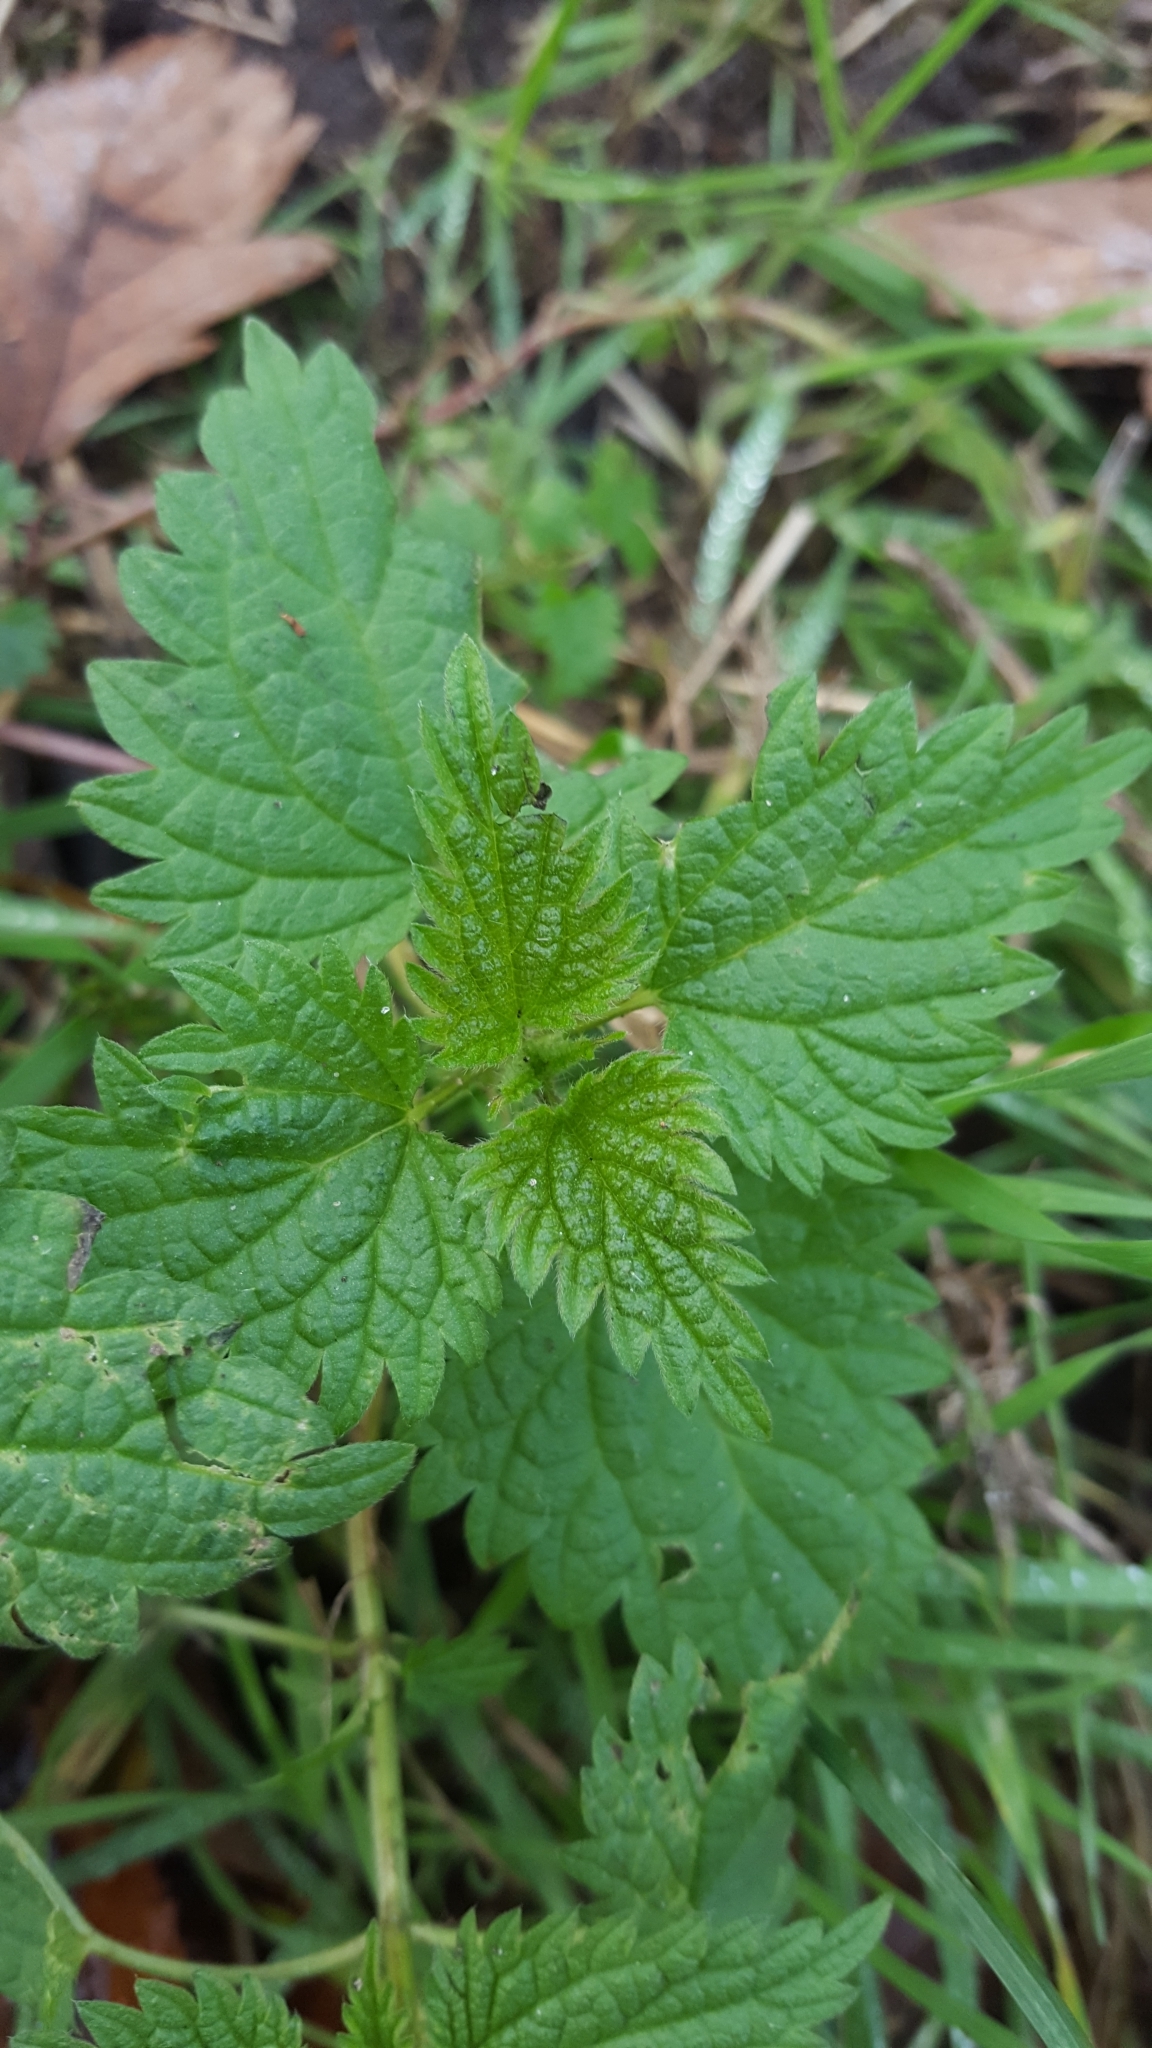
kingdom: Plantae
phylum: Tracheophyta
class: Magnoliopsida
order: Rosales
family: Urticaceae
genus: Urtica
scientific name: Urtica dioica
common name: Common nettle
